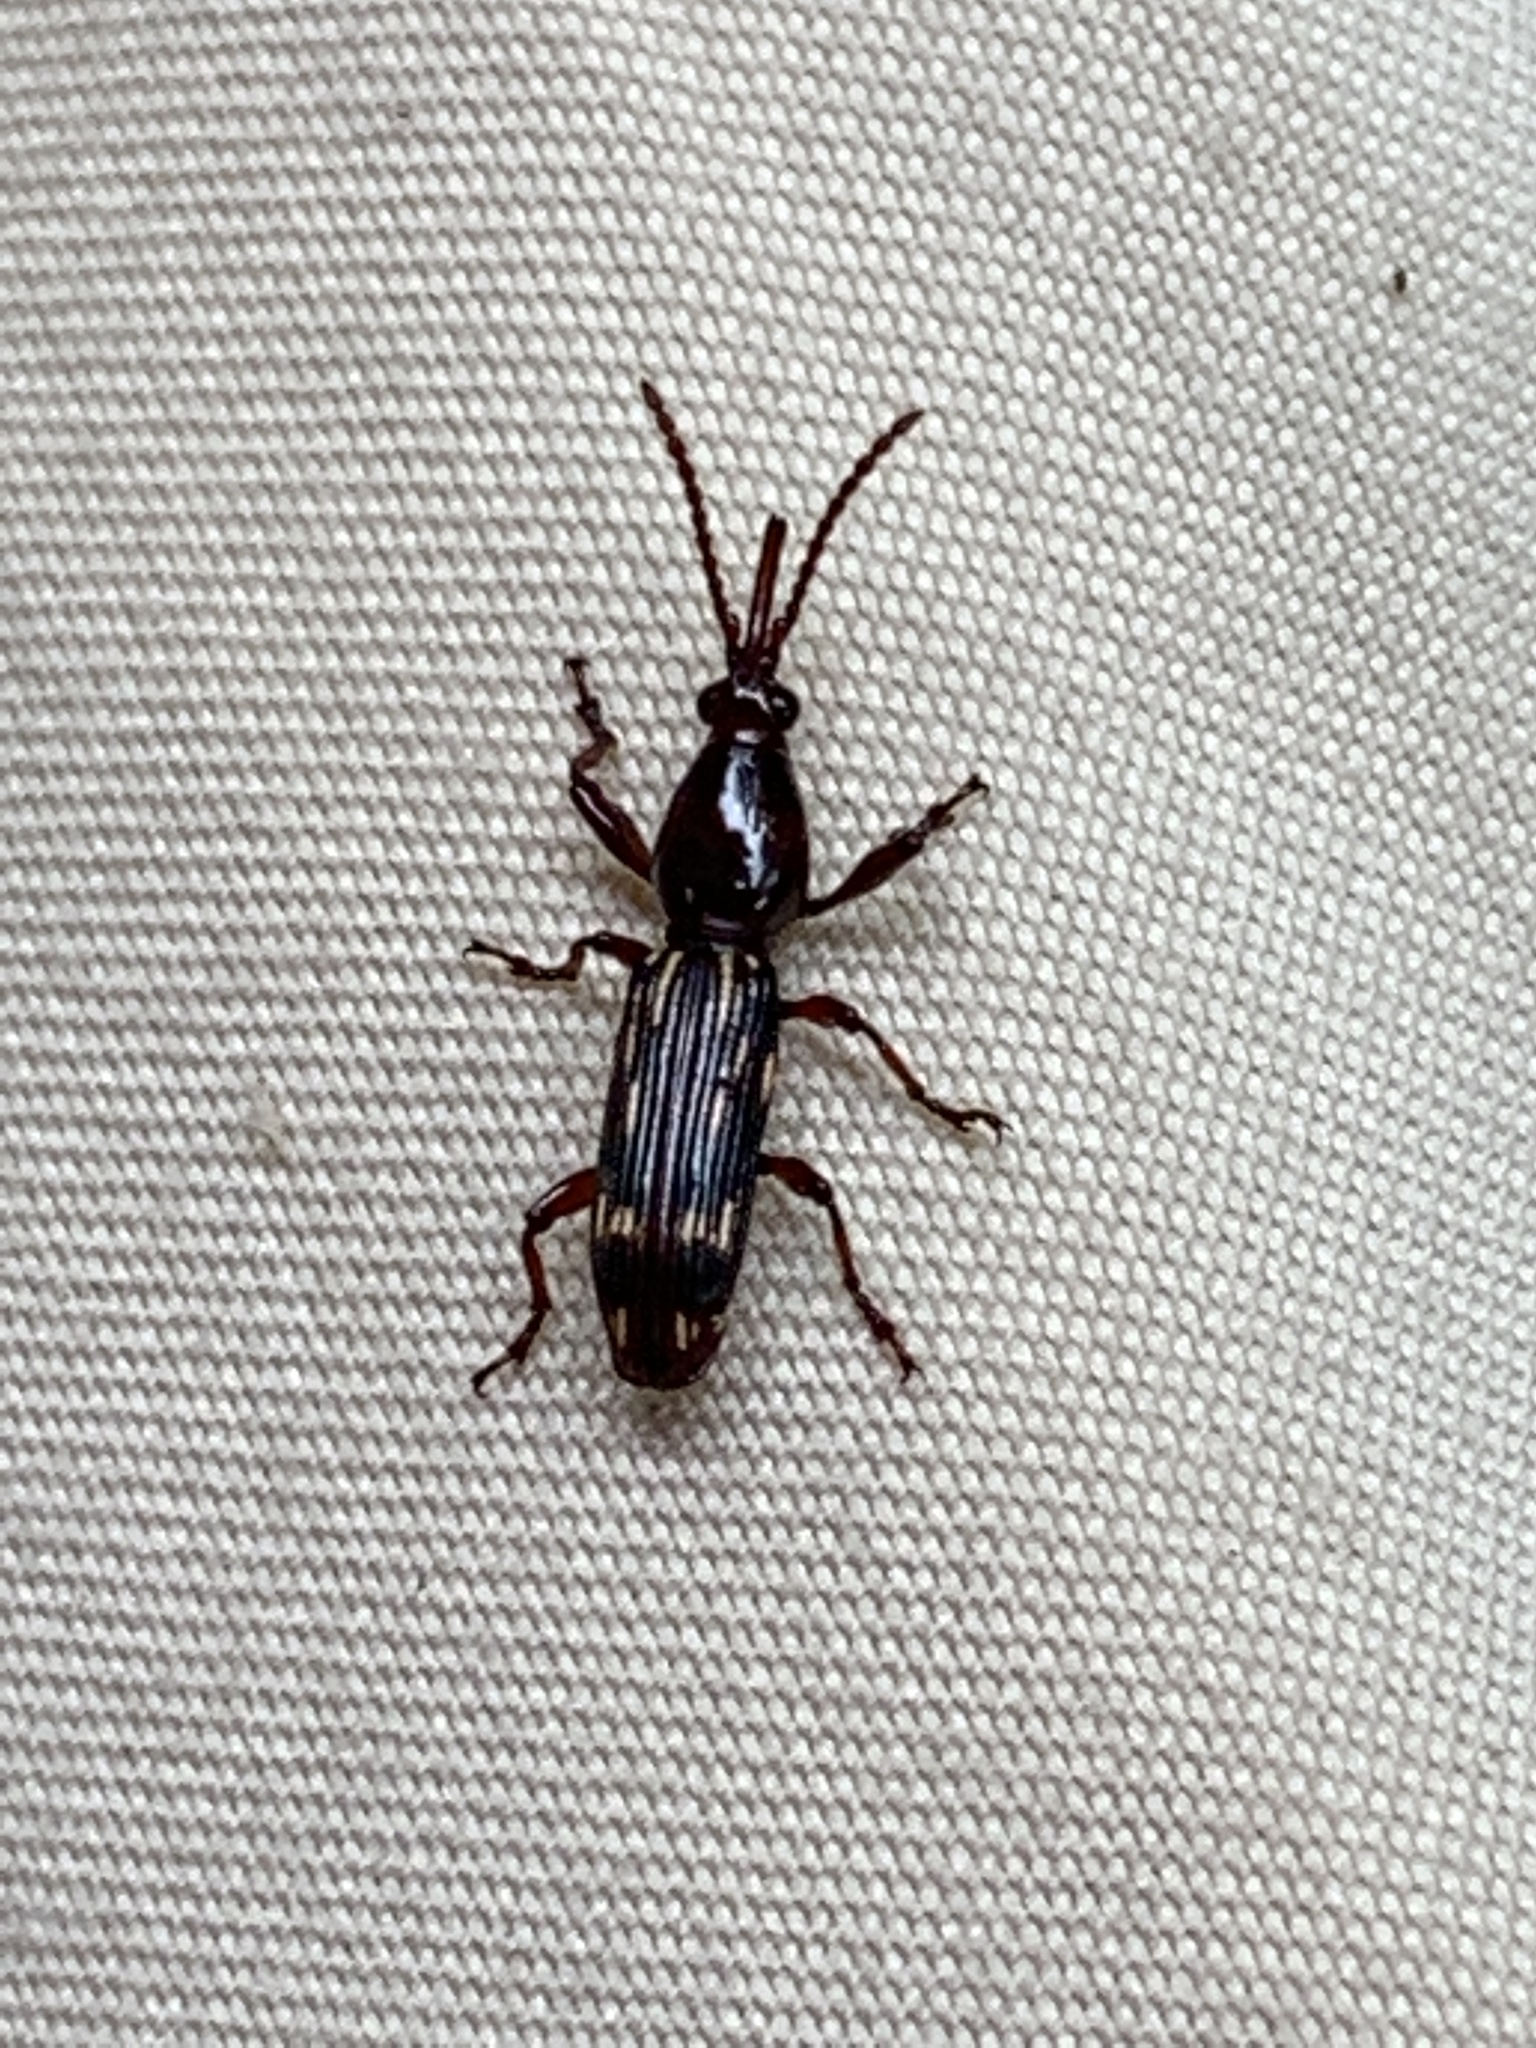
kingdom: Animalia
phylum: Arthropoda
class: Insecta
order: Coleoptera
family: Brentidae
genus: Arrenodes
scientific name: Arrenodes minutus
